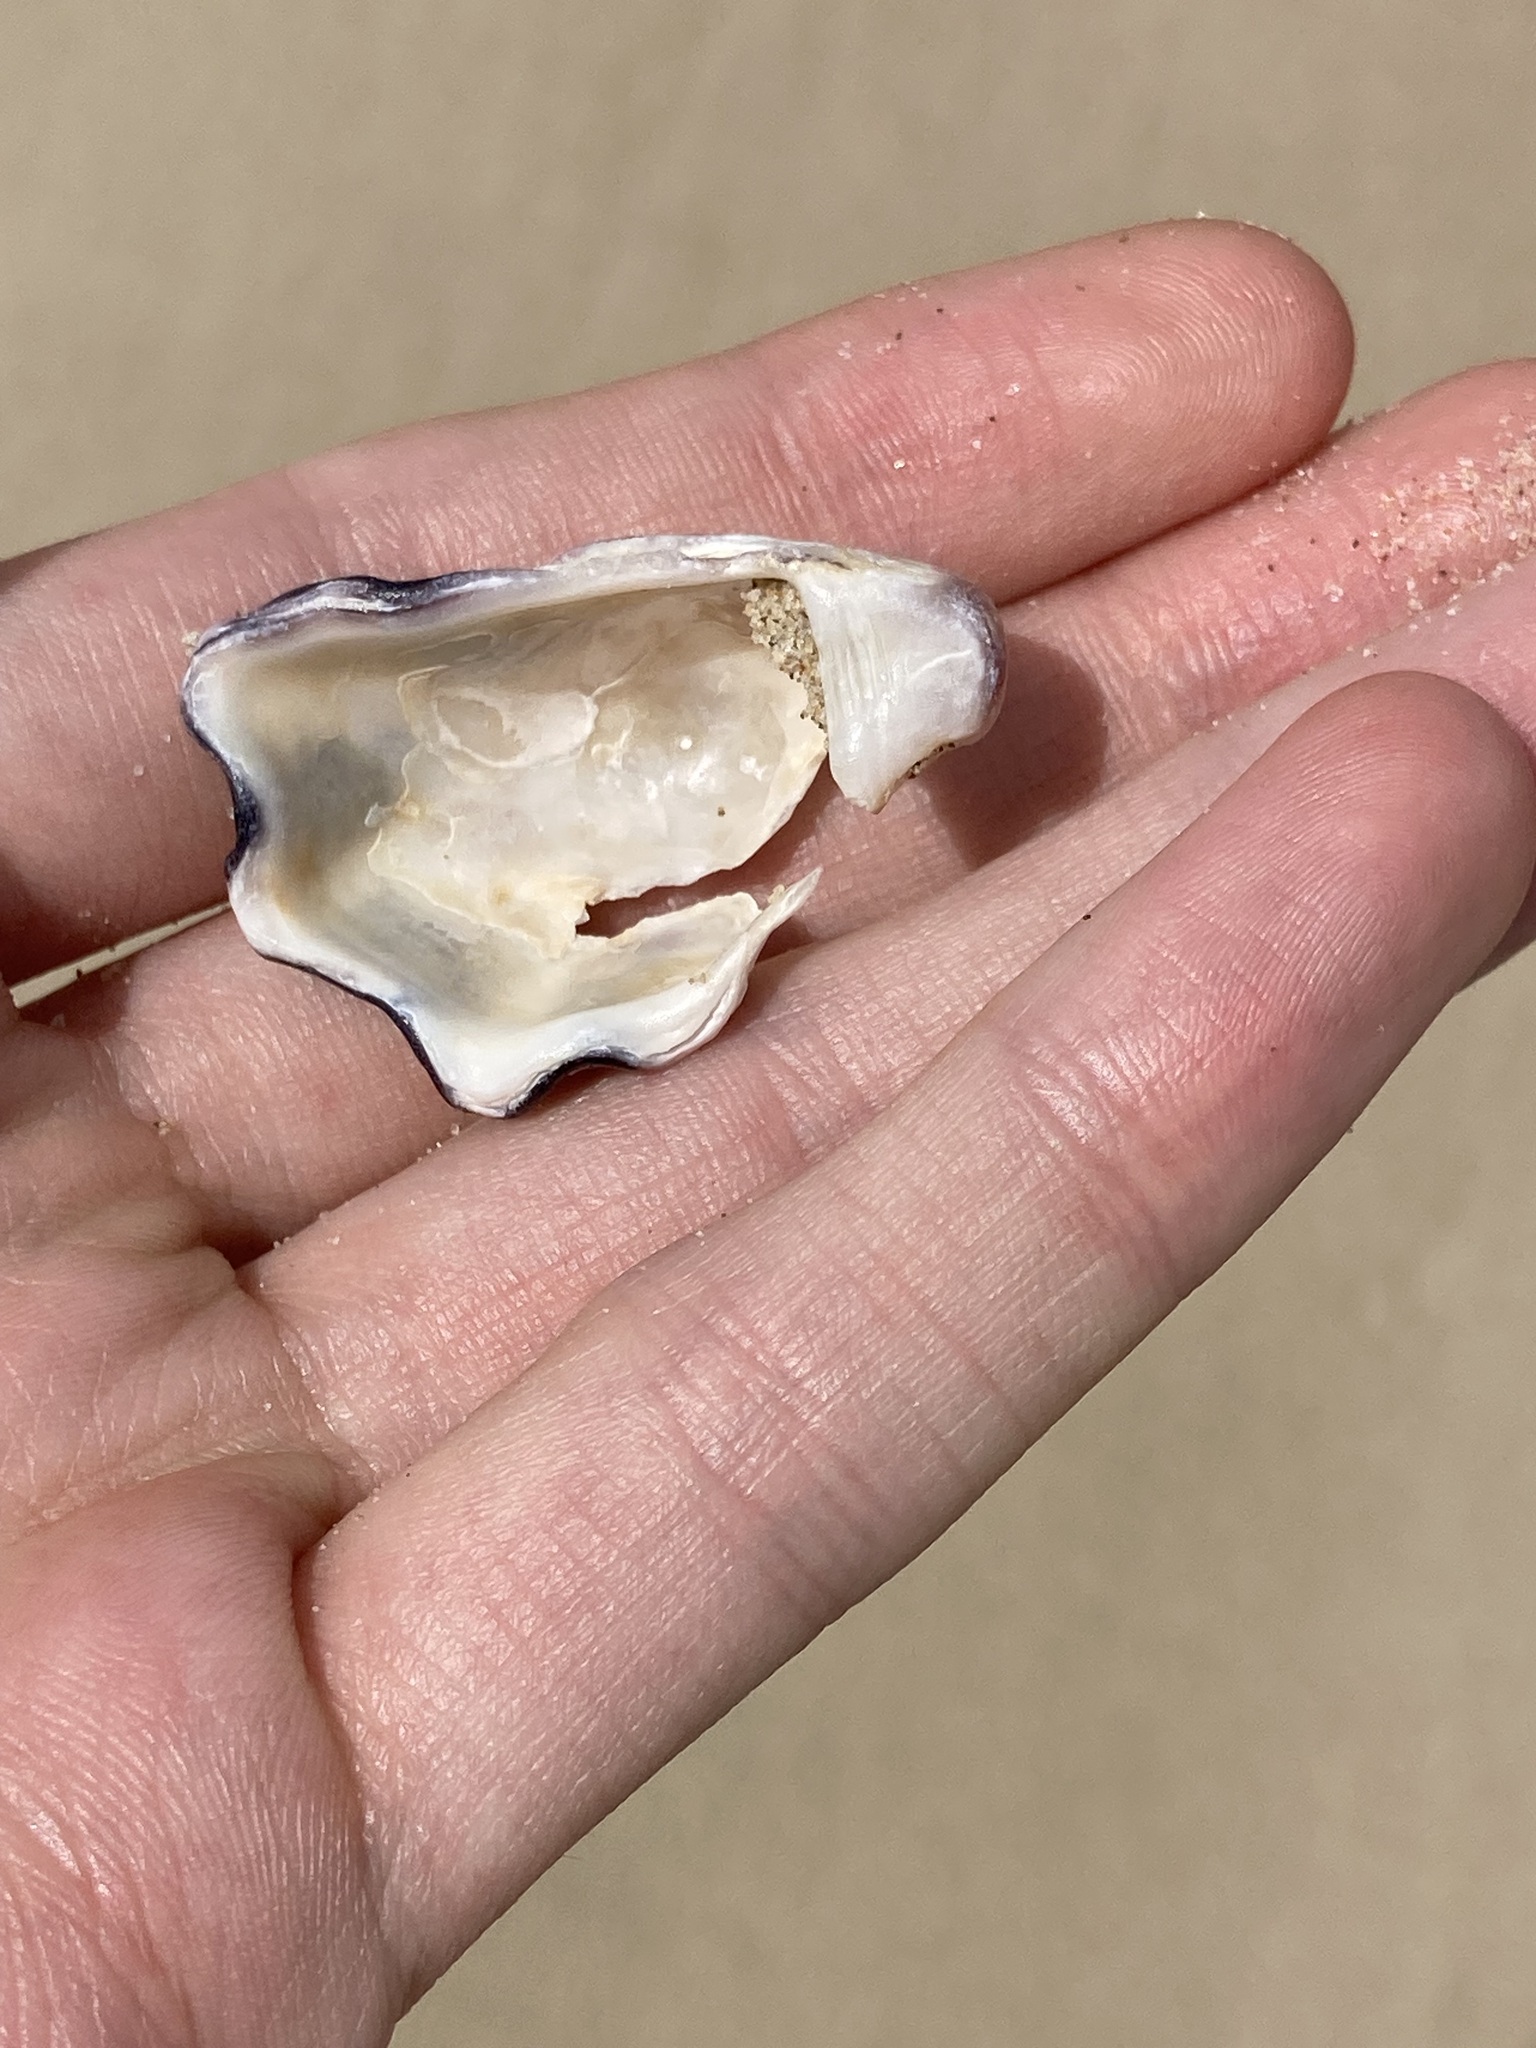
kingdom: Animalia
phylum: Mollusca
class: Bivalvia
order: Ostreida
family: Ostreidae
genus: Saccostrea
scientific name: Saccostrea glomerata
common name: Sydney cupped oyster
